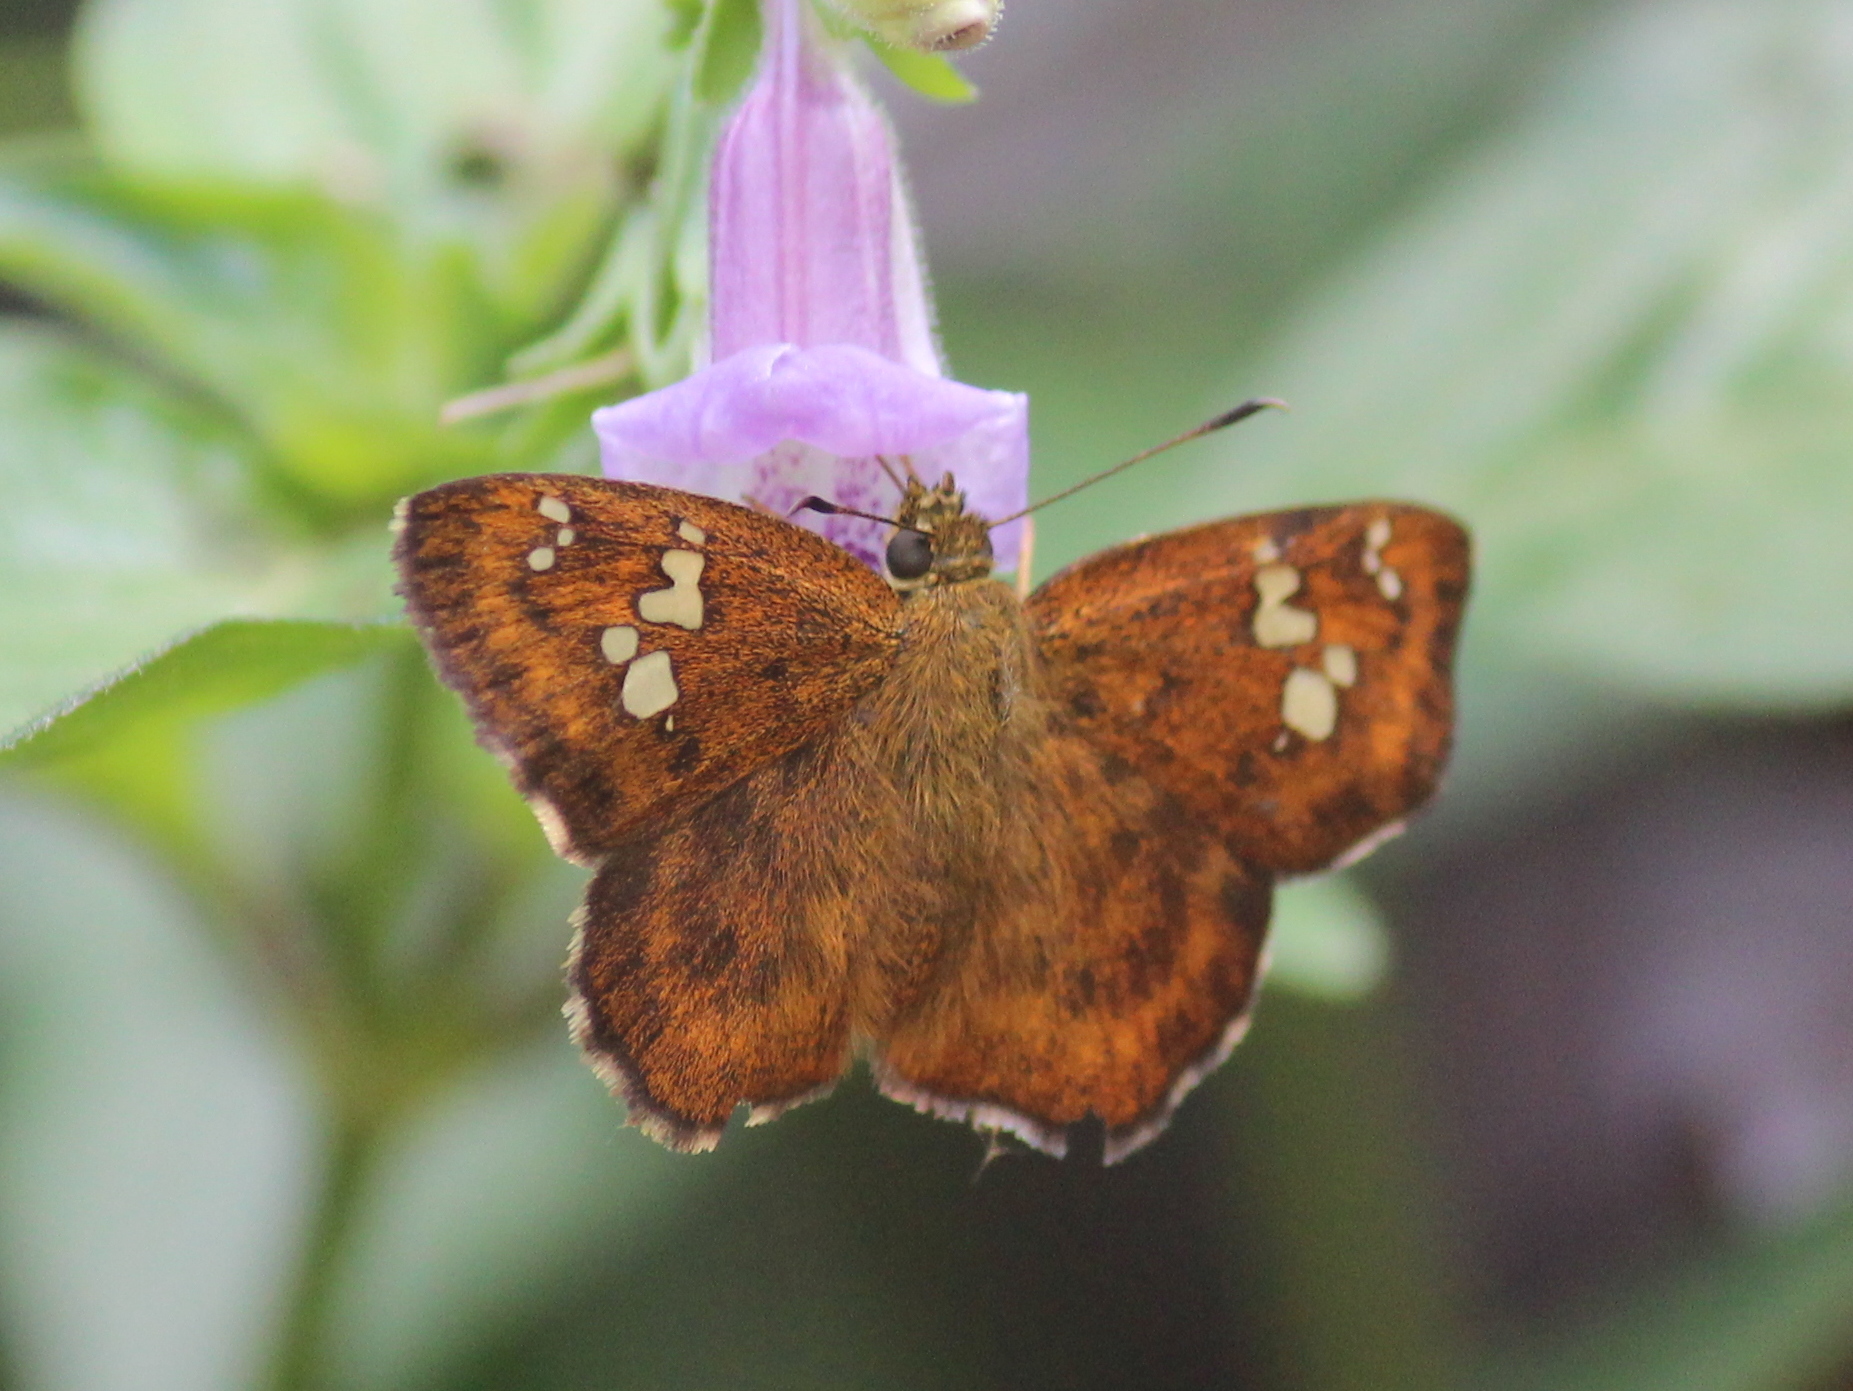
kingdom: Animalia
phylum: Arthropoda
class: Insecta
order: Lepidoptera
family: Hesperiidae
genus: Pseudocoladenia
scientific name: Pseudocoladenia dan
